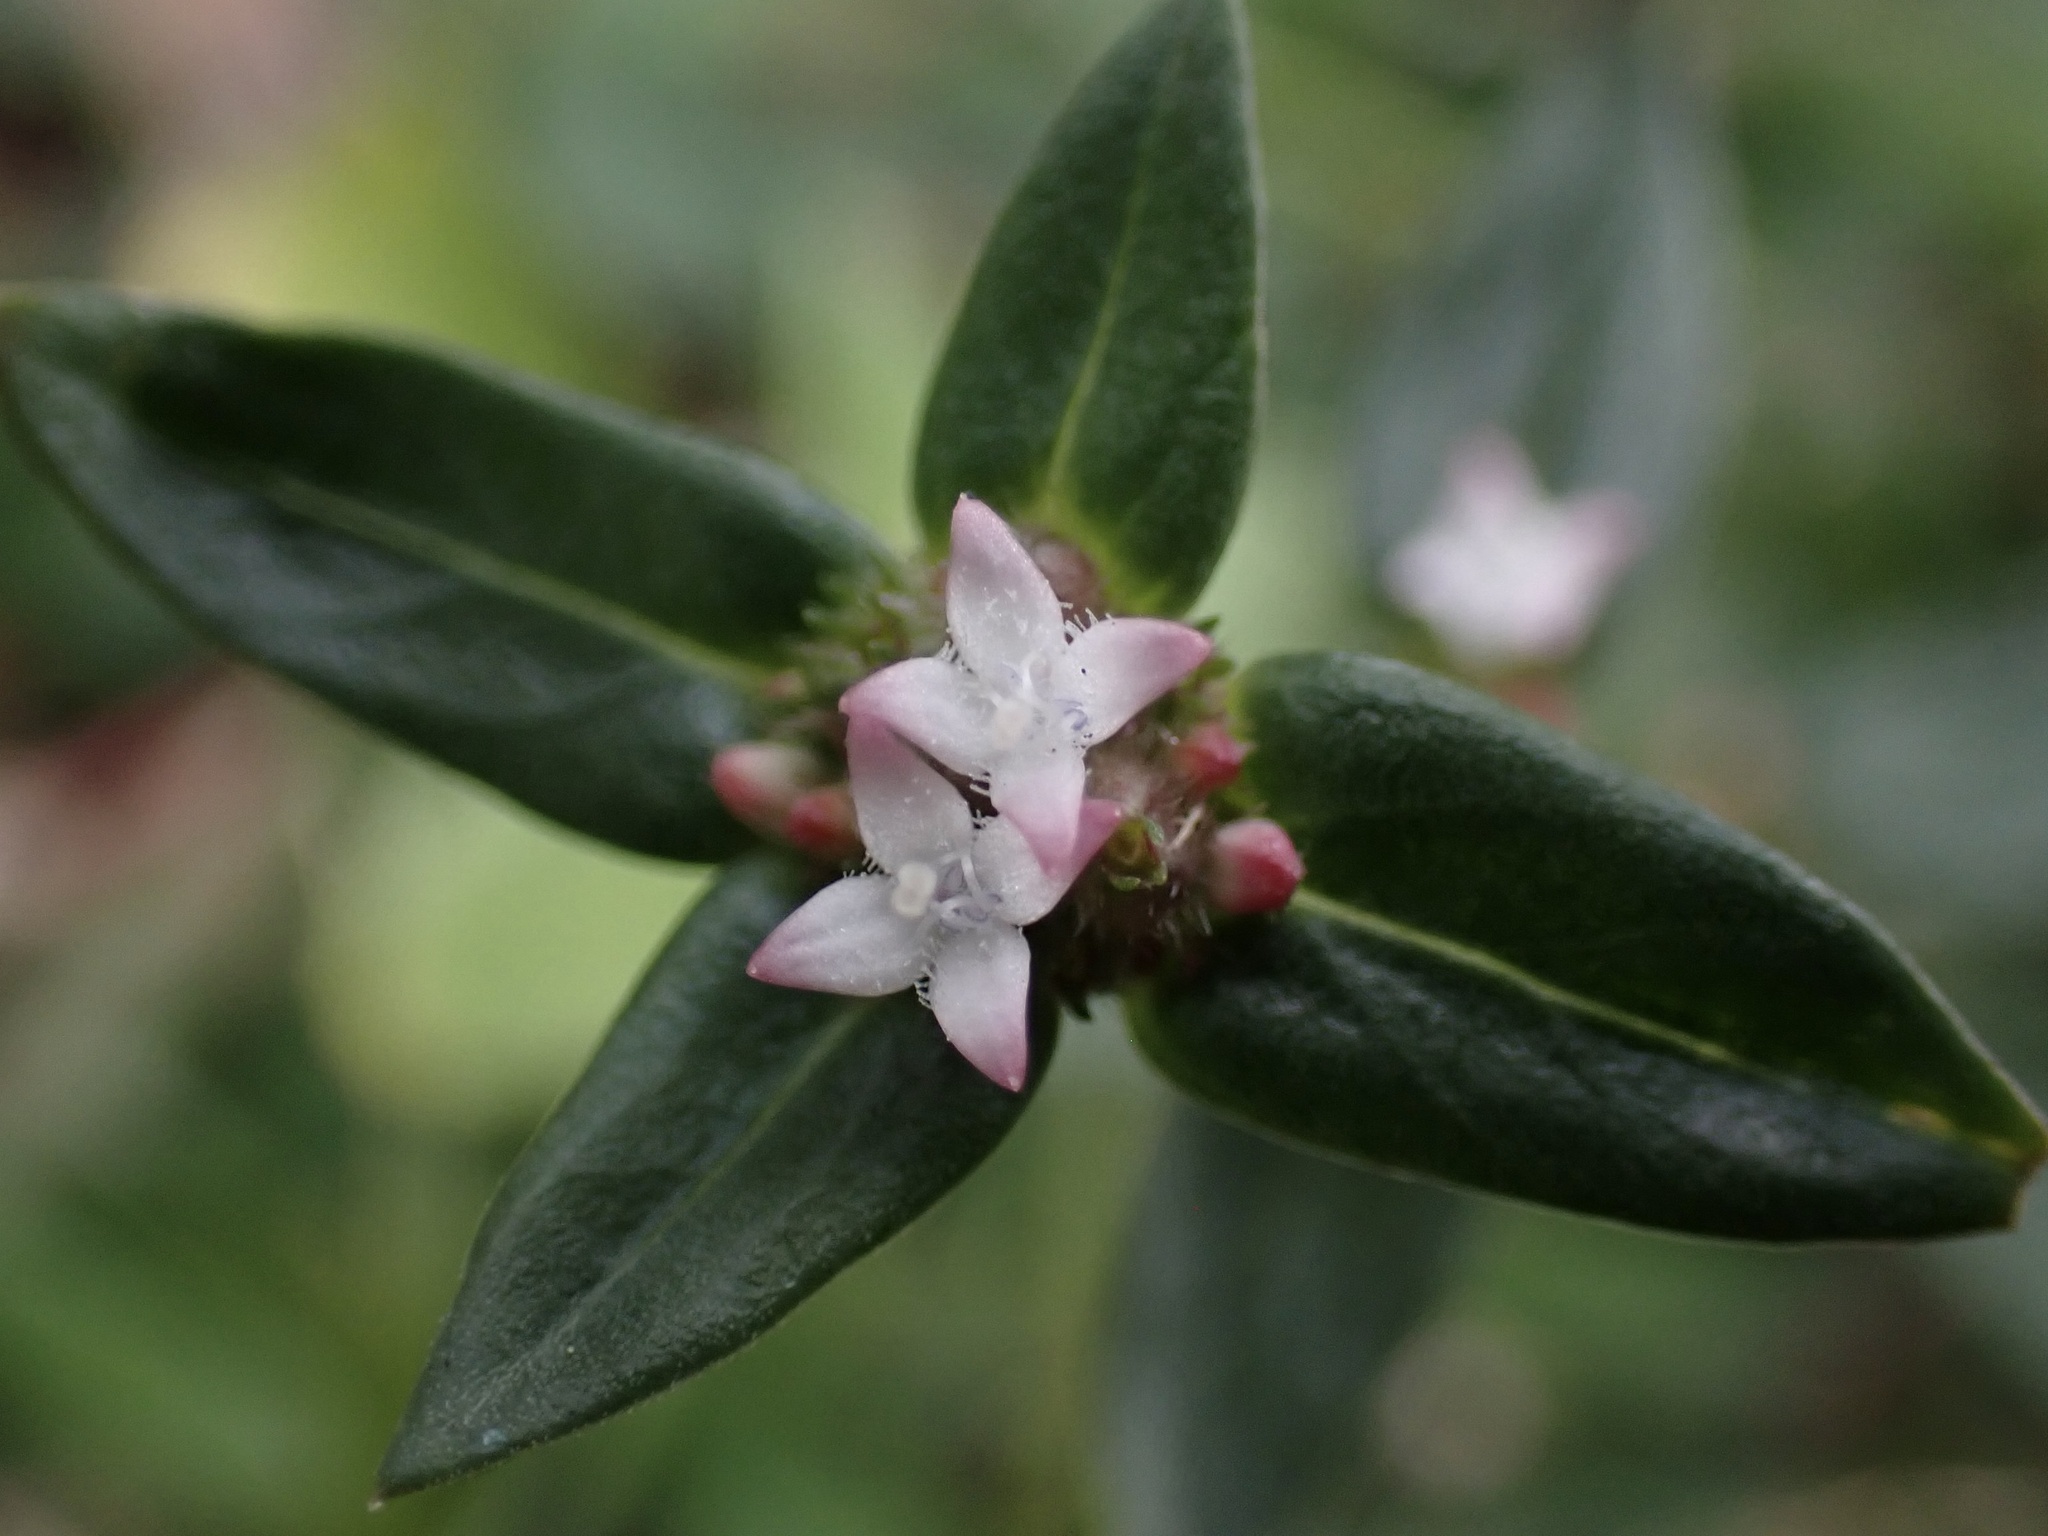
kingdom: Plantae
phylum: Tracheophyta
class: Magnoliopsida
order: Gentianales
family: Rubiaceae
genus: Spermacoce
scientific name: Spermacoce remota
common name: Woodland false buttonweed
